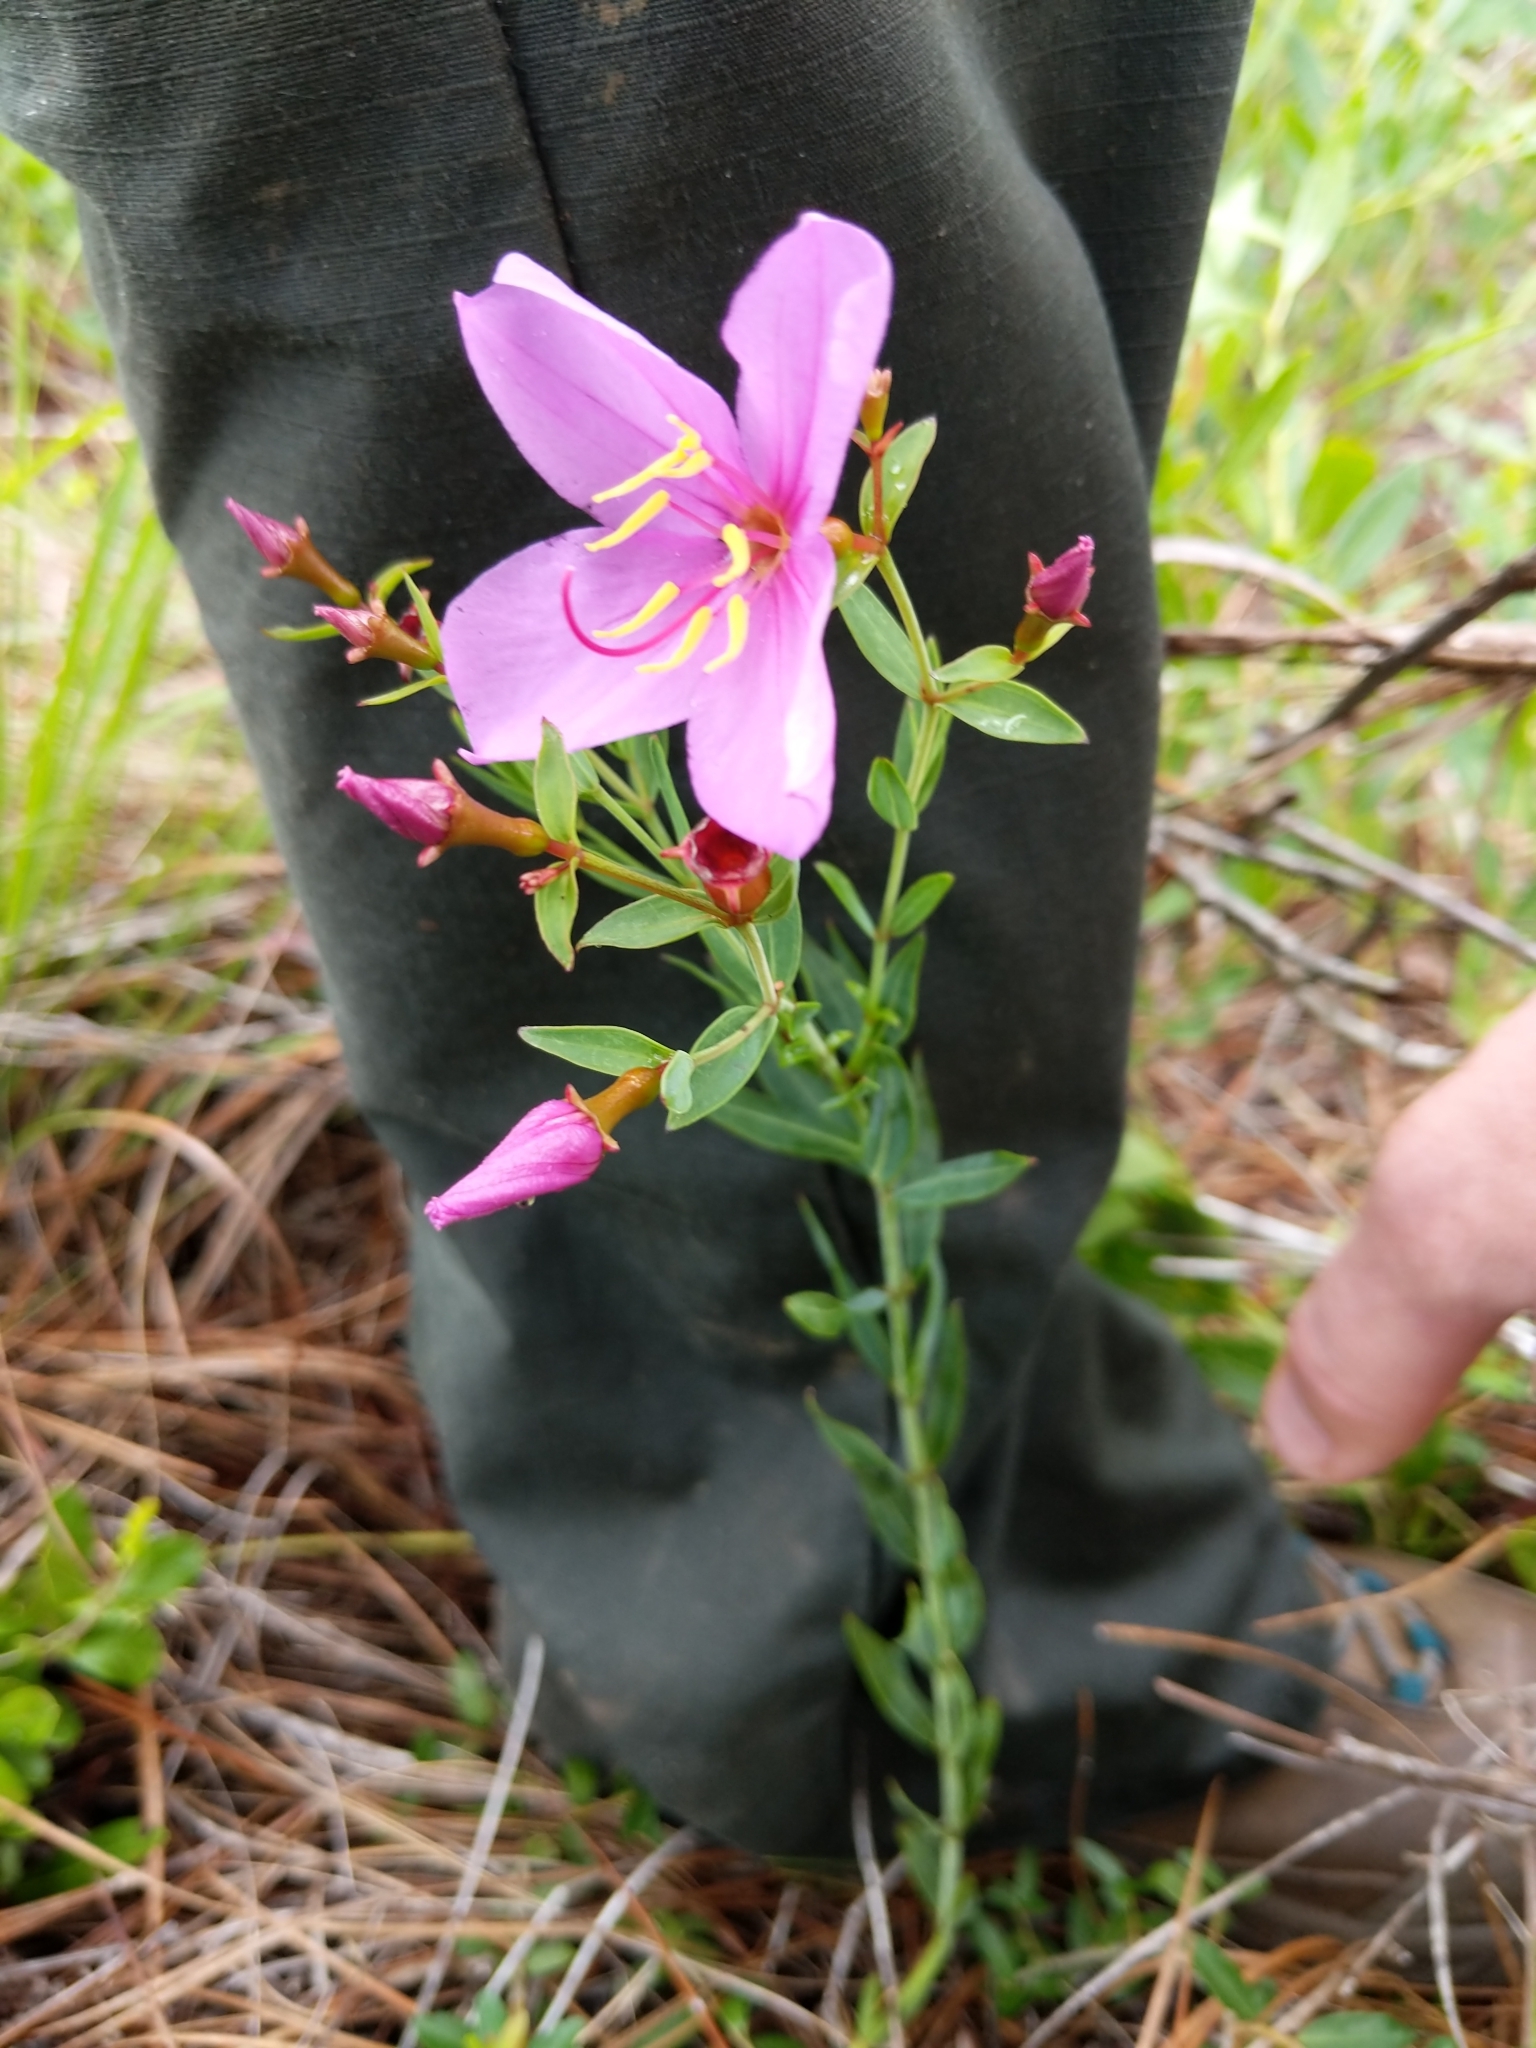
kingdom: Plantae
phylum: Tracheophyta
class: Magnoliopsida
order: Myrtales
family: Melastomataceae
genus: Rhexia
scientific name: Rhexia alifanus
